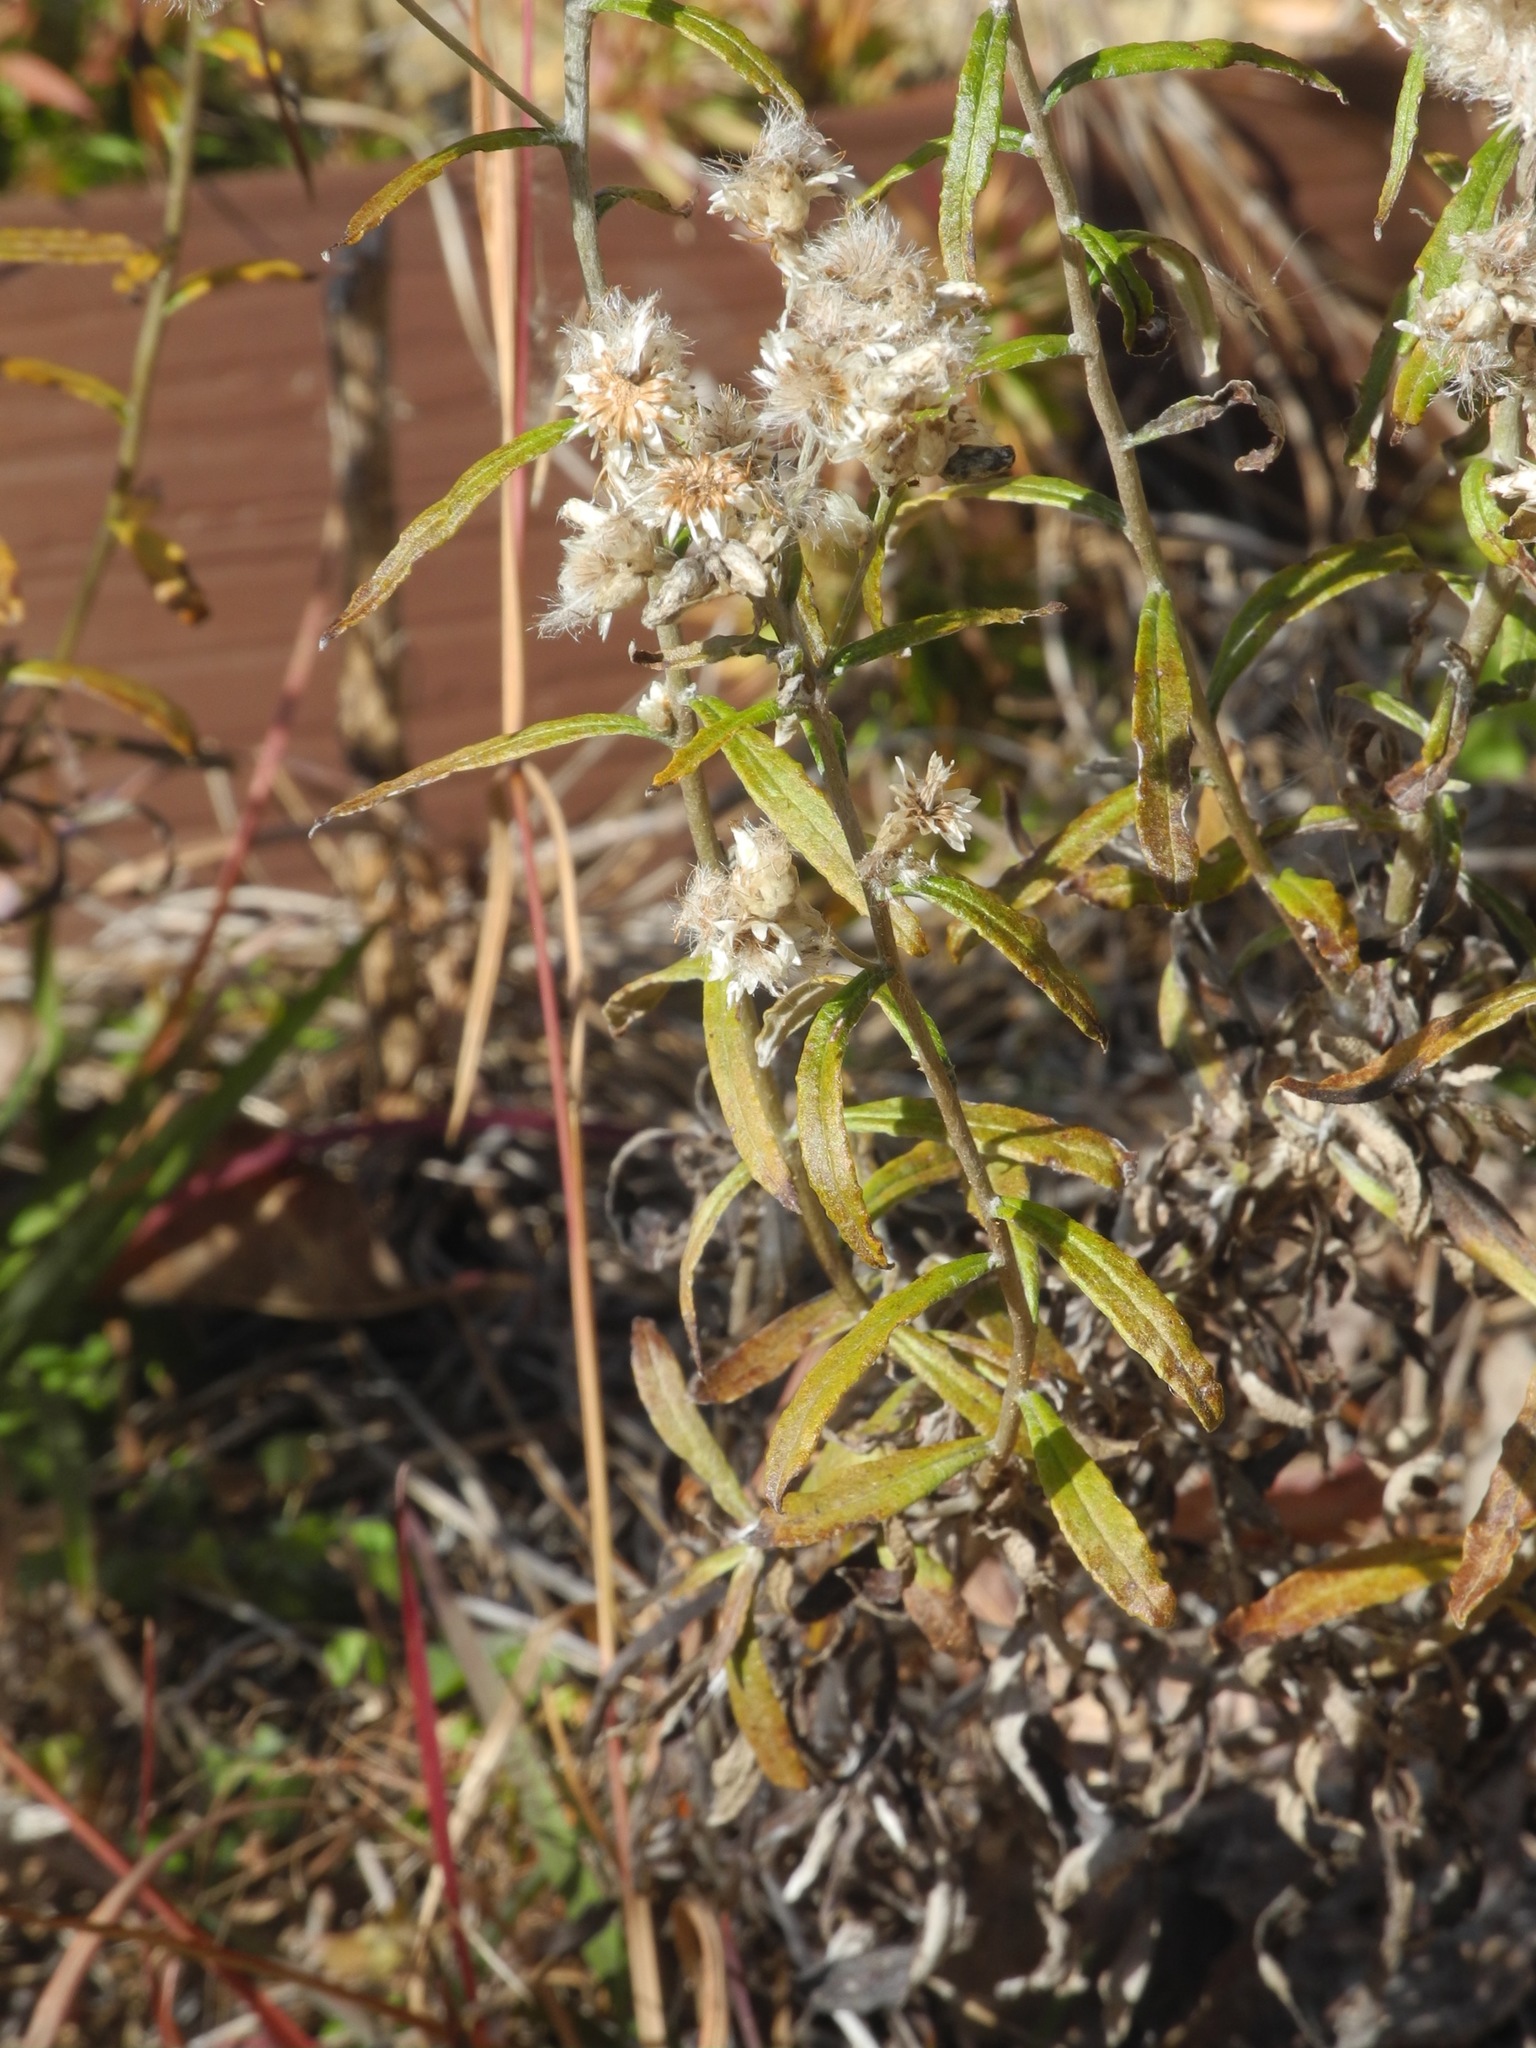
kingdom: Plantae
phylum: Tracheophyta
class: Magnoliopsida
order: Asterales
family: Asteraceae
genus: Pseudognaphalium
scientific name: Pseudognaphalium obtusifolium
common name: Eastern rabbit-tobacco
